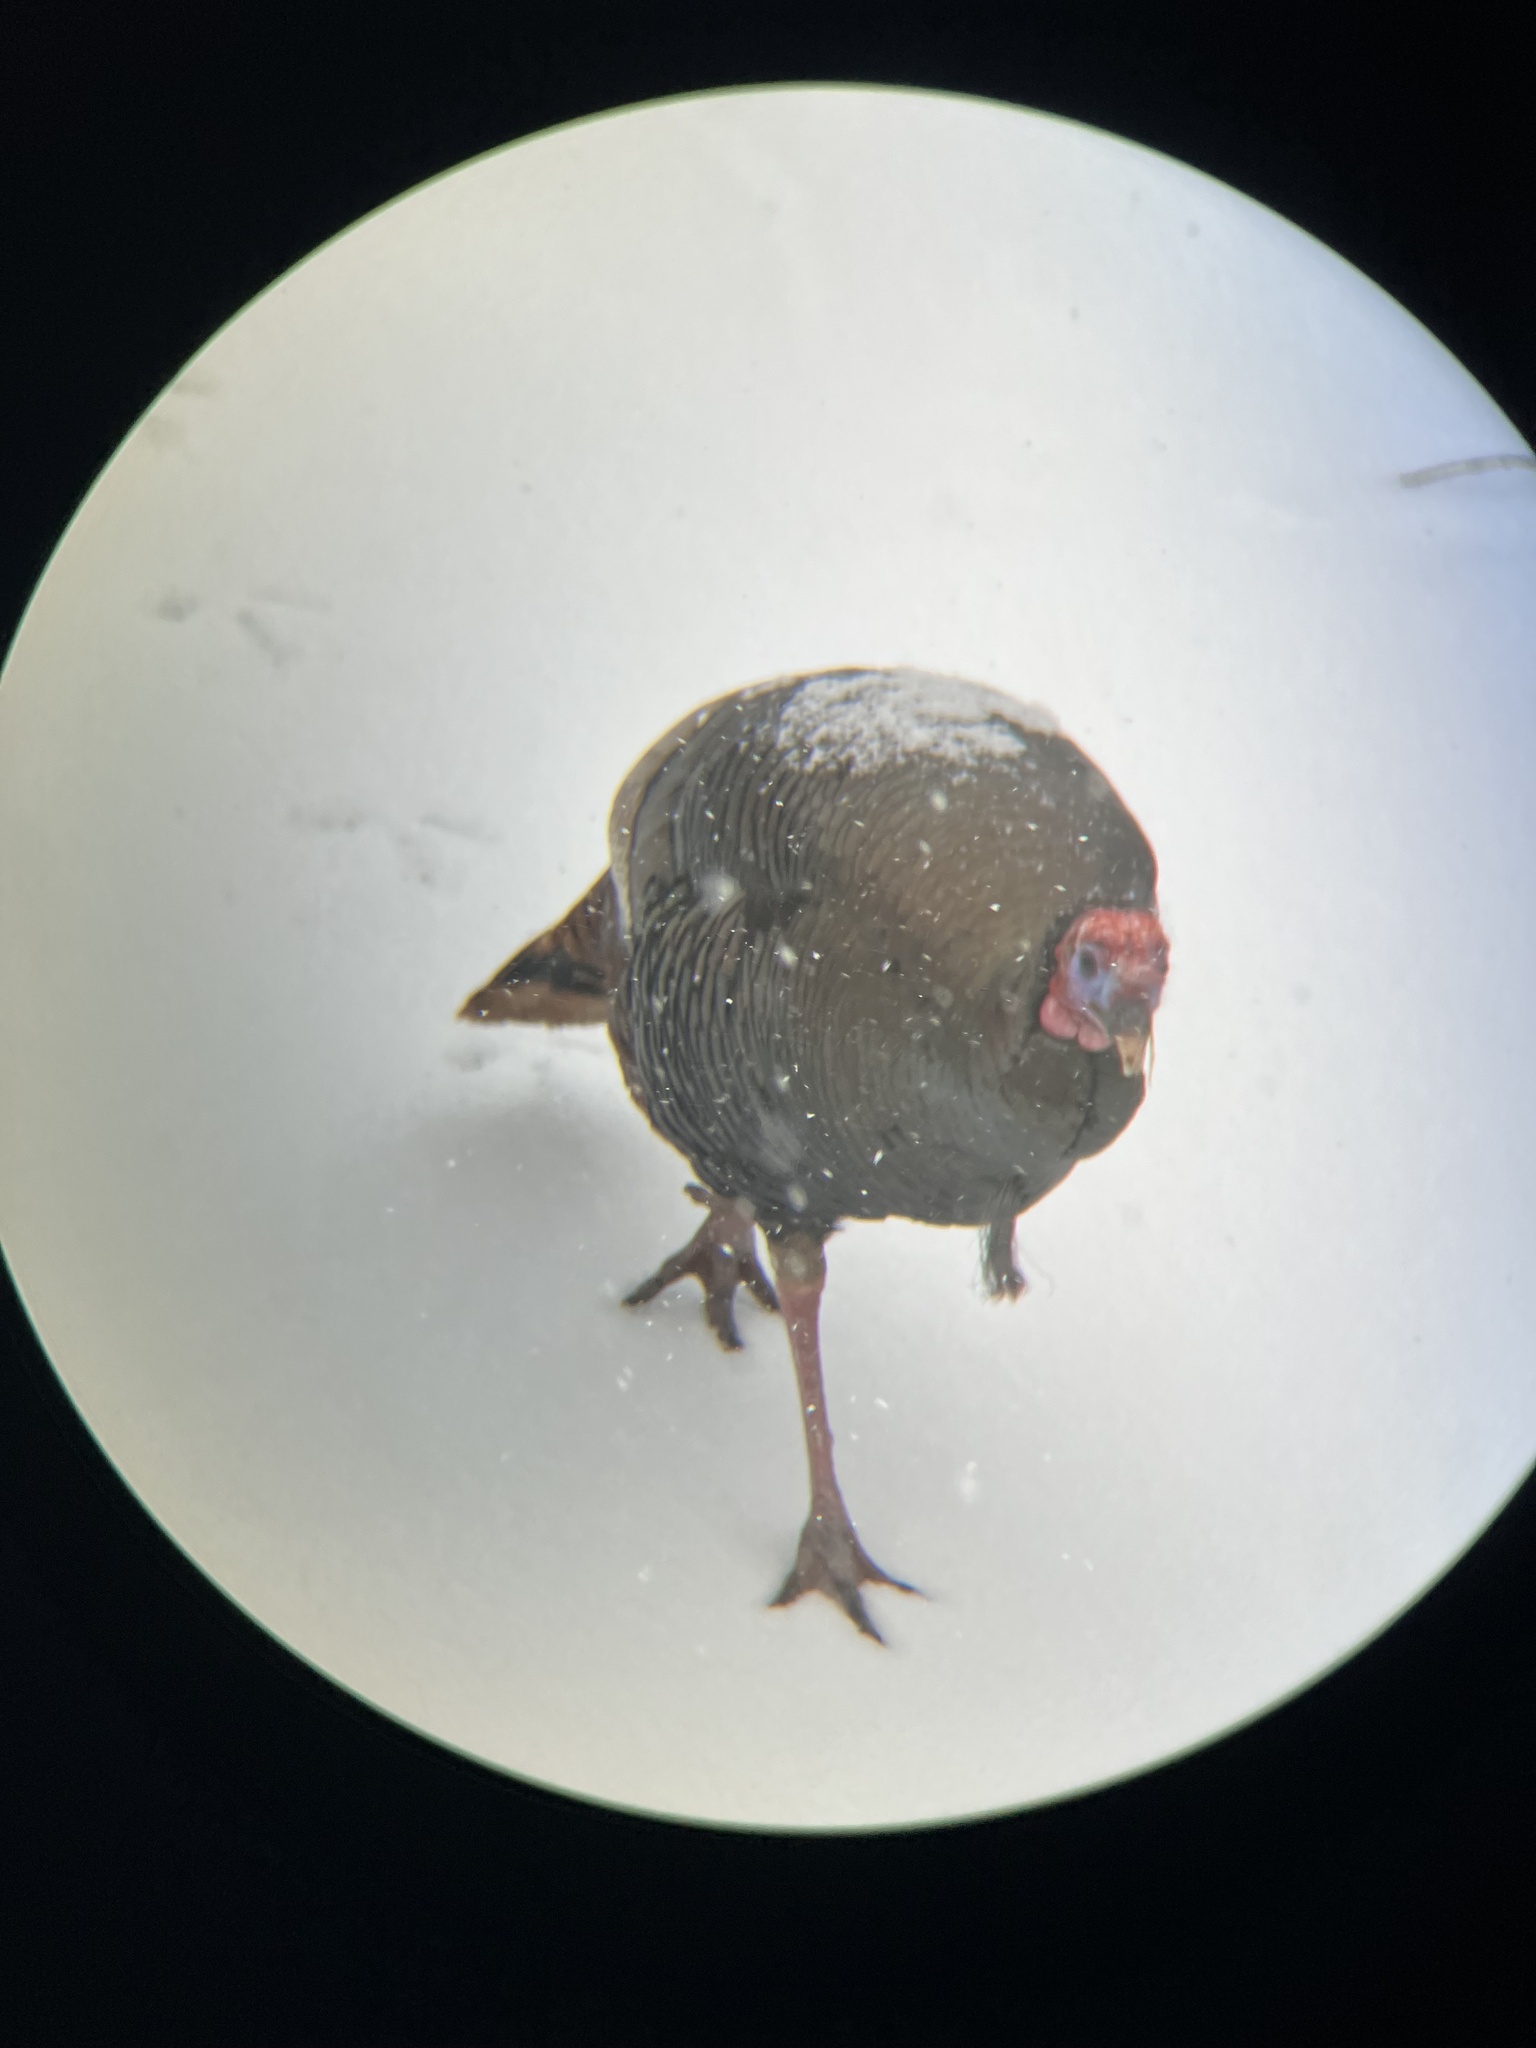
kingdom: Animalia
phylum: Chordata
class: Aves
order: Galliformes
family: Phasianidae
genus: Meleagris
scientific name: Meleagris gallopavo
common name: Wild turkey
